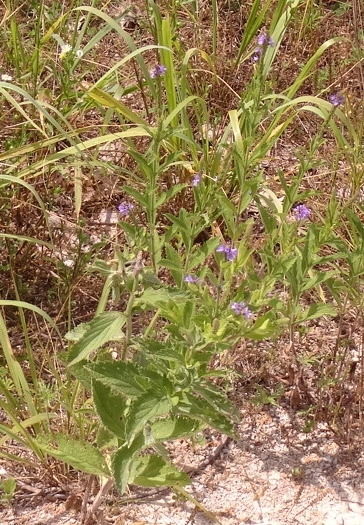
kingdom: Plantae
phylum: Tracheophyta
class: Magnoliopsida
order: Lamiales
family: Verbenaceae
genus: Verbena
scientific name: Verbena stricta
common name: Hoary vervain
